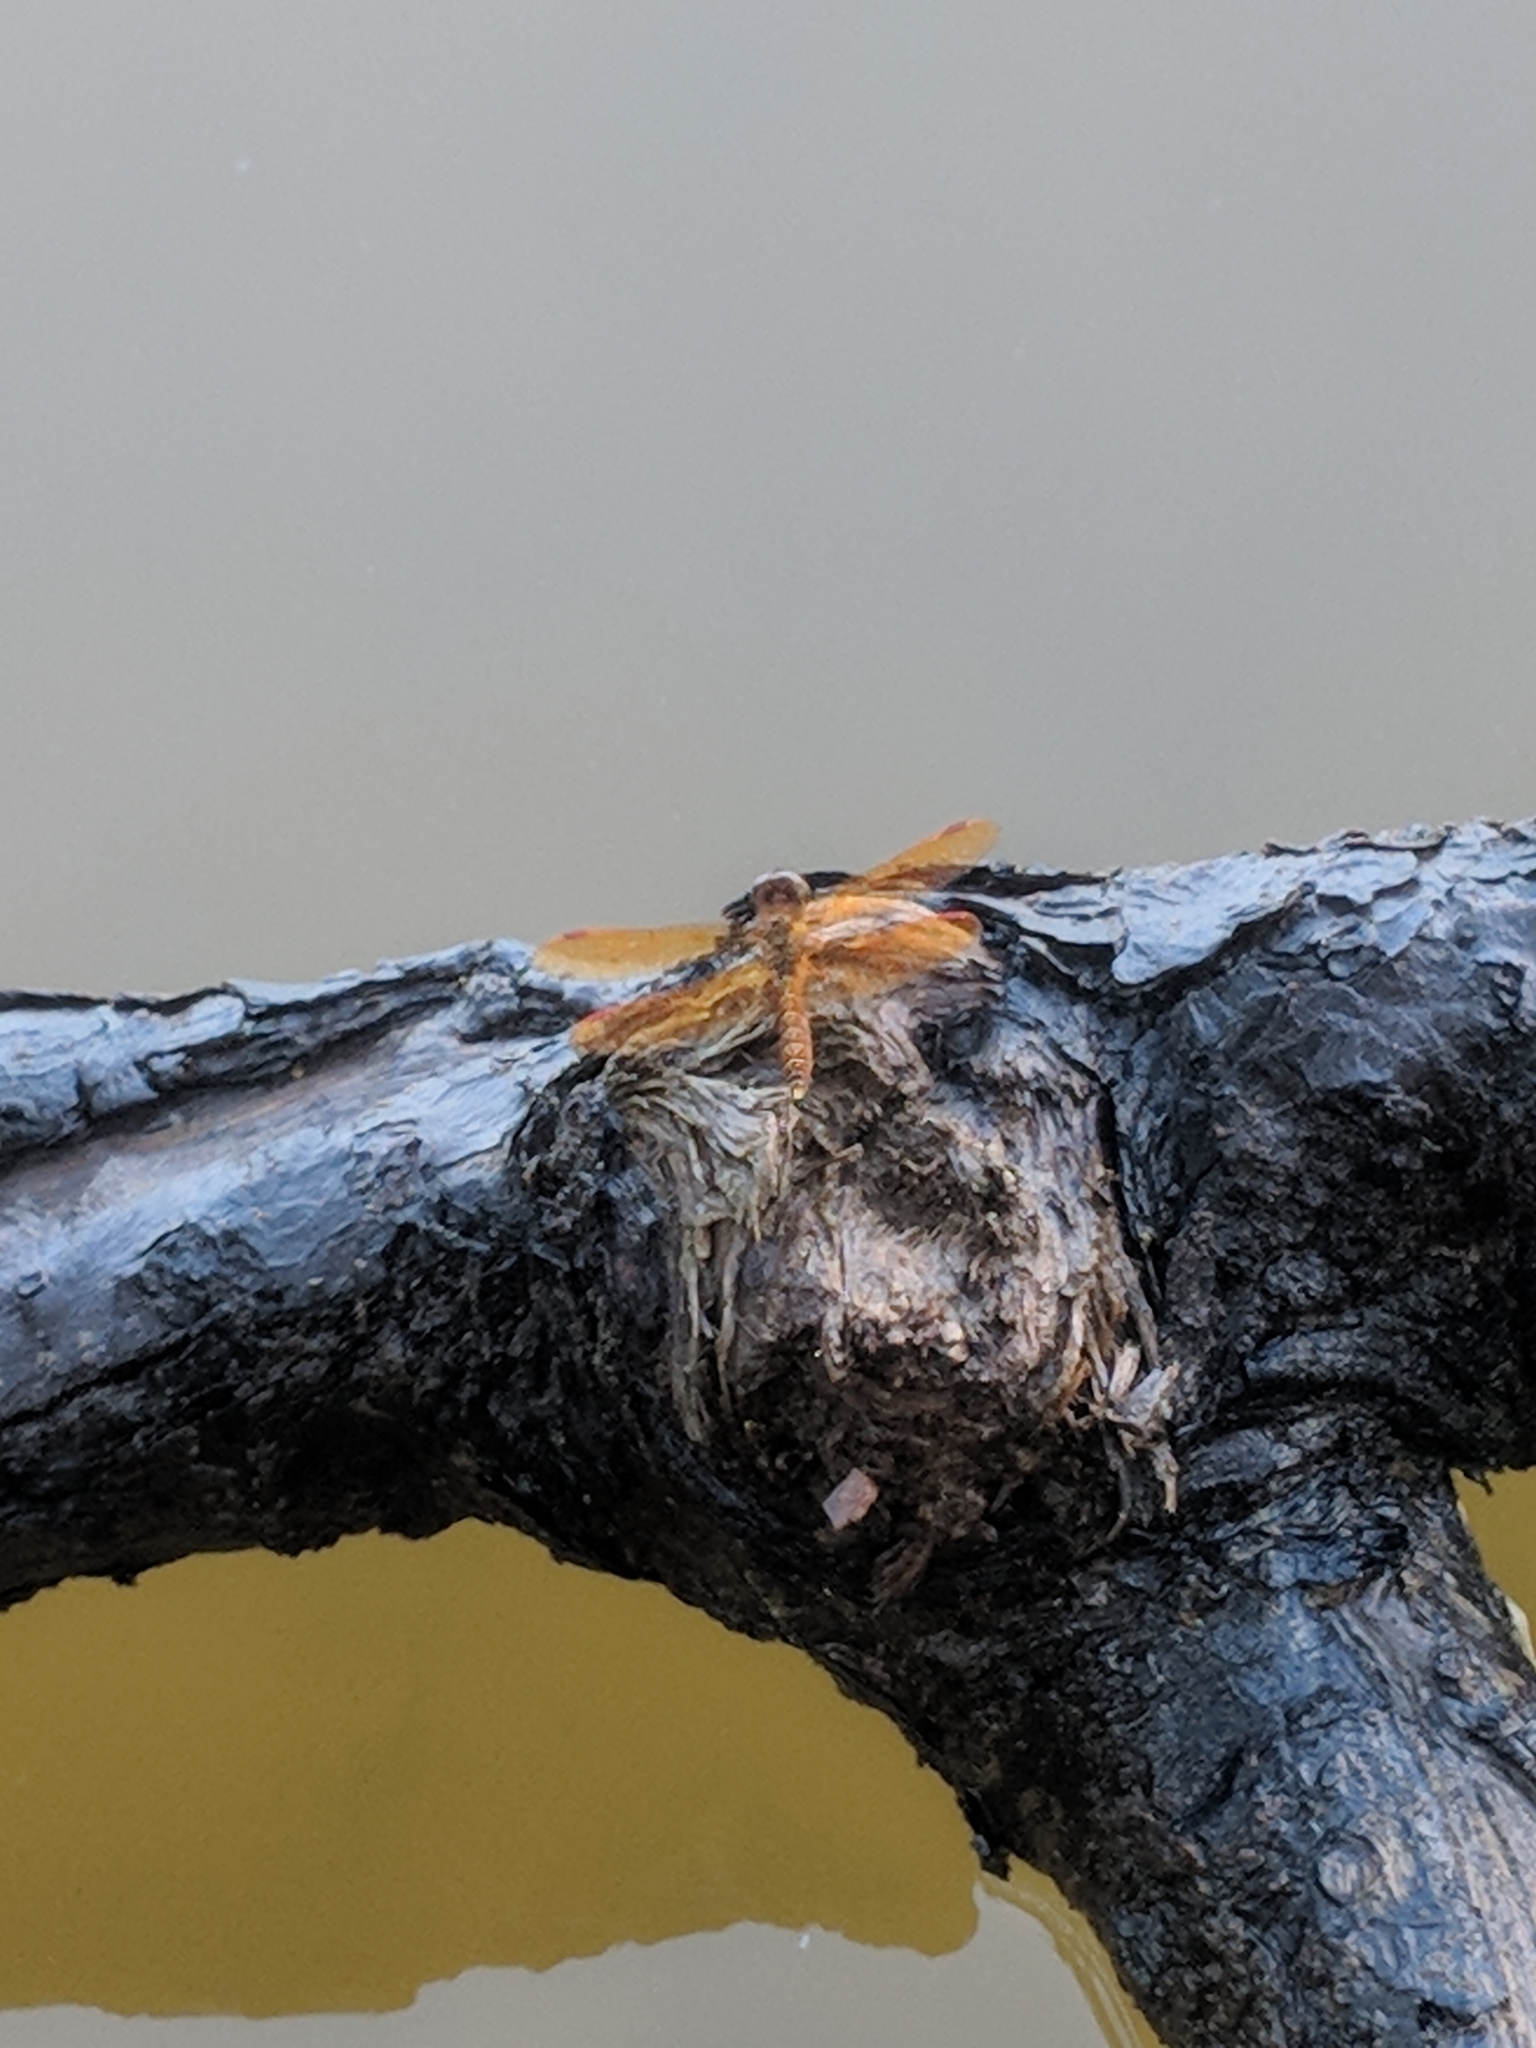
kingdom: Animalia
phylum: Arthropoda
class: Insecta
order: Odonata
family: Libellulidae
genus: Perithemis
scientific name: Perithemis tenera
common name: Eastern amberwing
